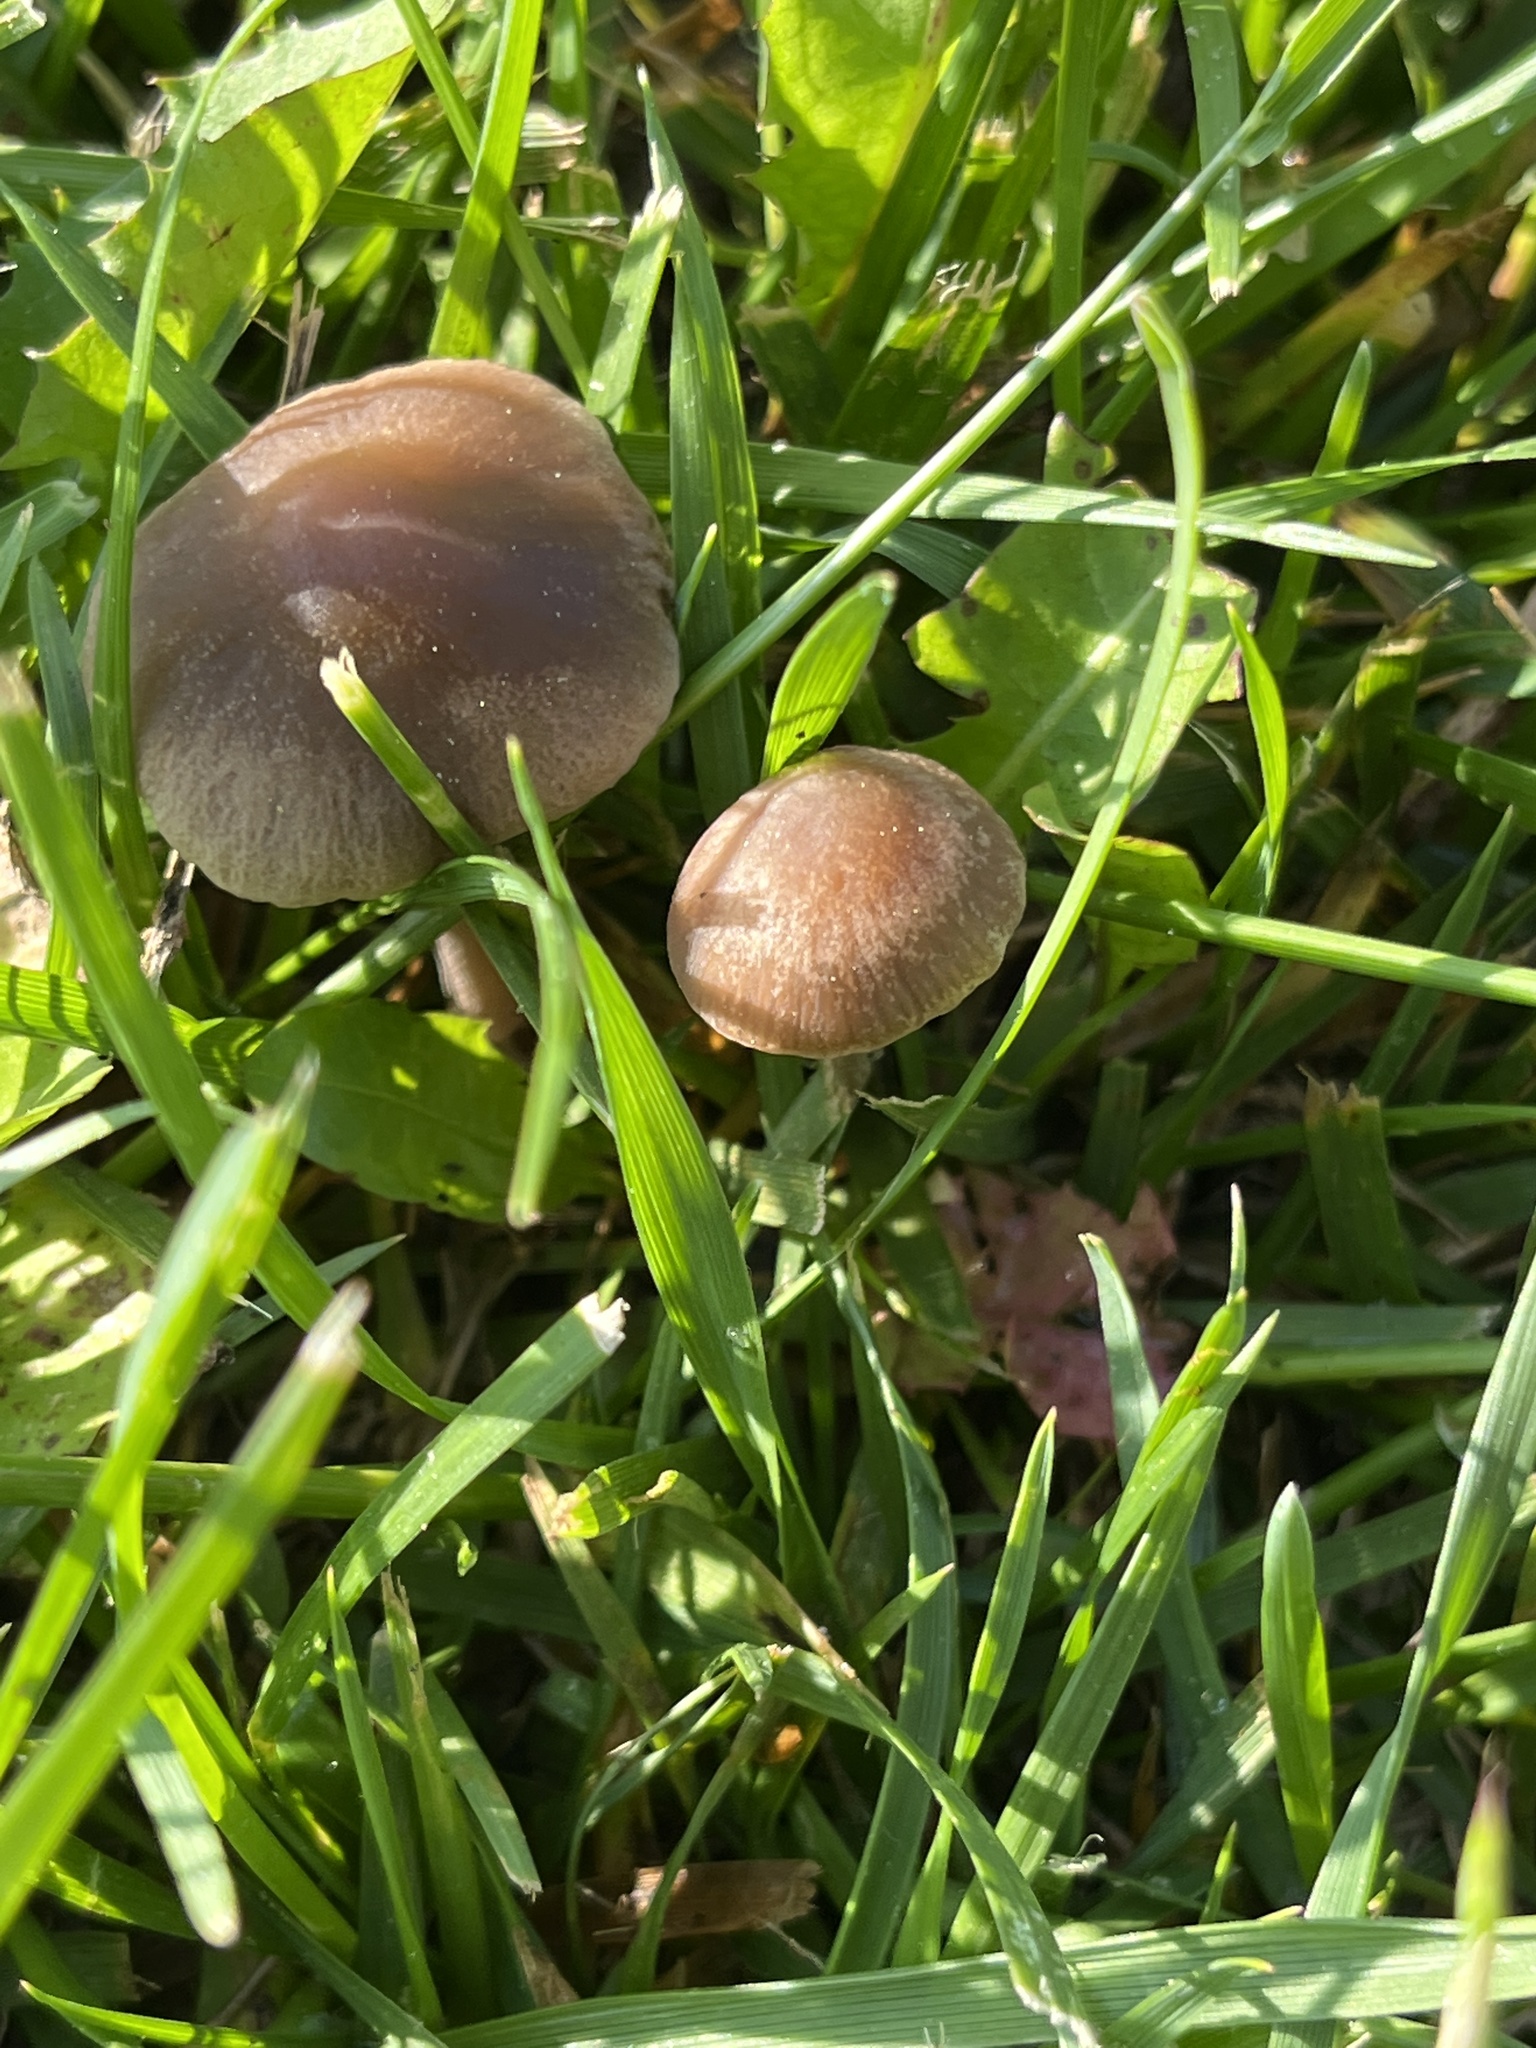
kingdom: Fungi
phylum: Basidiomycota
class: Agaricomycetes
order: Agaricales
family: Bolbitiaceae
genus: Panaeolina
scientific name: Panaeolina foenisecii
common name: Brown hay cap
